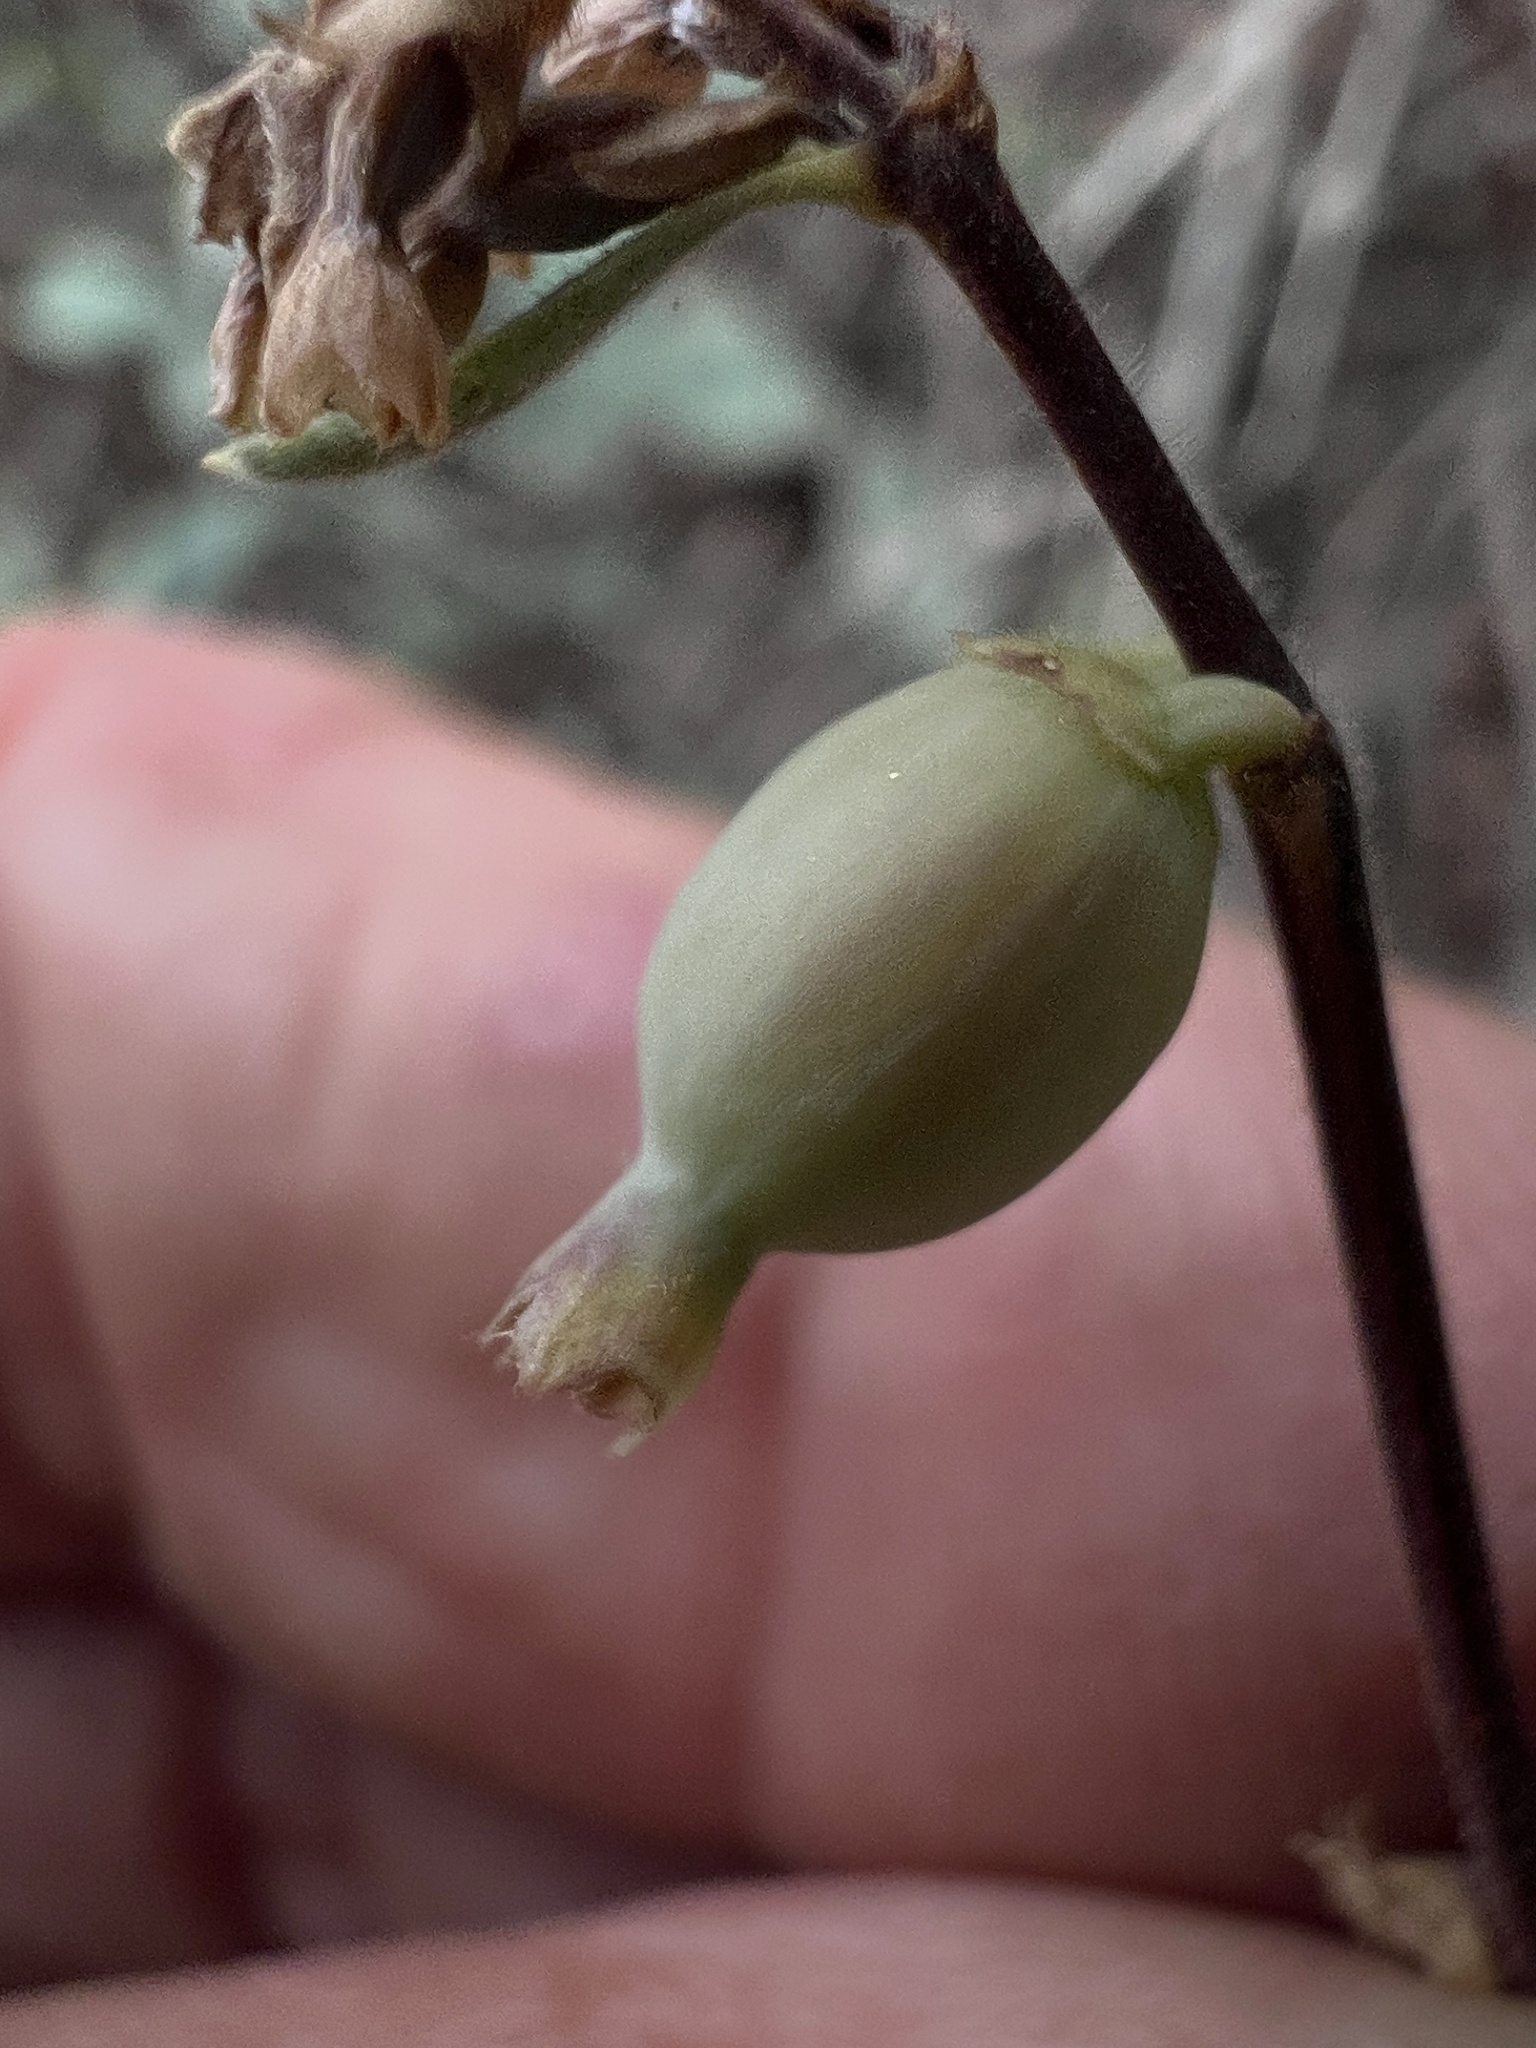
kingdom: Plantae
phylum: Tracheophyta
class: Magnoliopsida
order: Dipsacales
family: Caprifoliaceae
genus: Symphoricarpos
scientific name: Symphoricarpos longiflorus
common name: Fragrant snowberry
